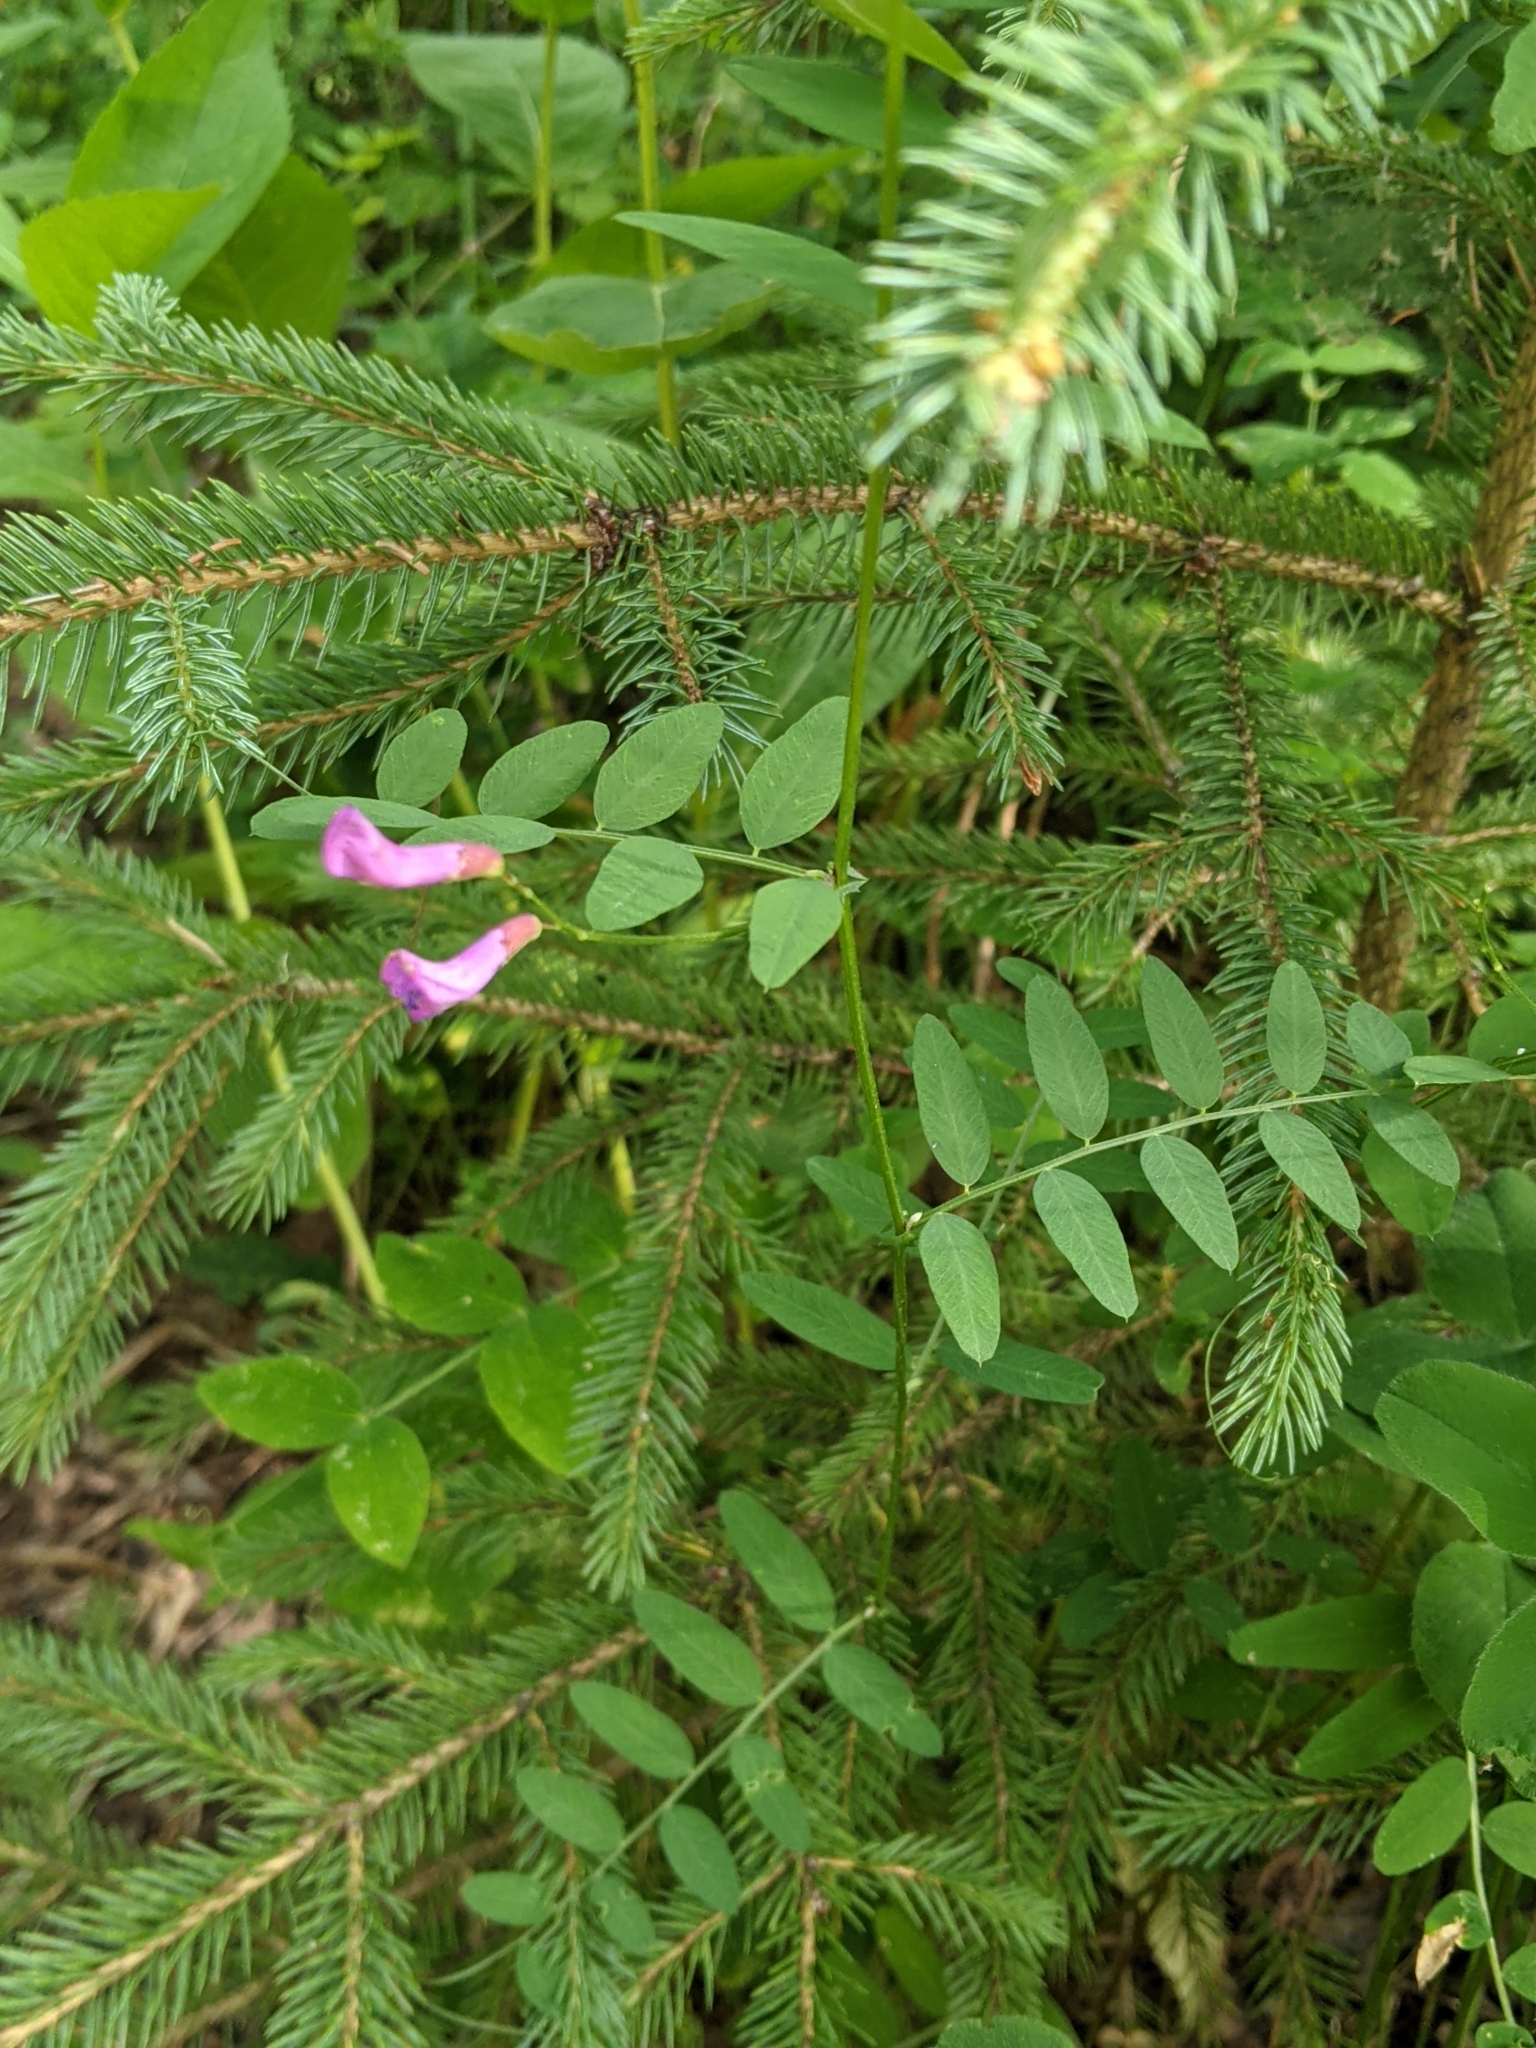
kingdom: Plantae
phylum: Tracheophyta
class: Magnoliopsida
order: Fabales
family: Fabaceae
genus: Vicia
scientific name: Vicia americana
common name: American vetch
